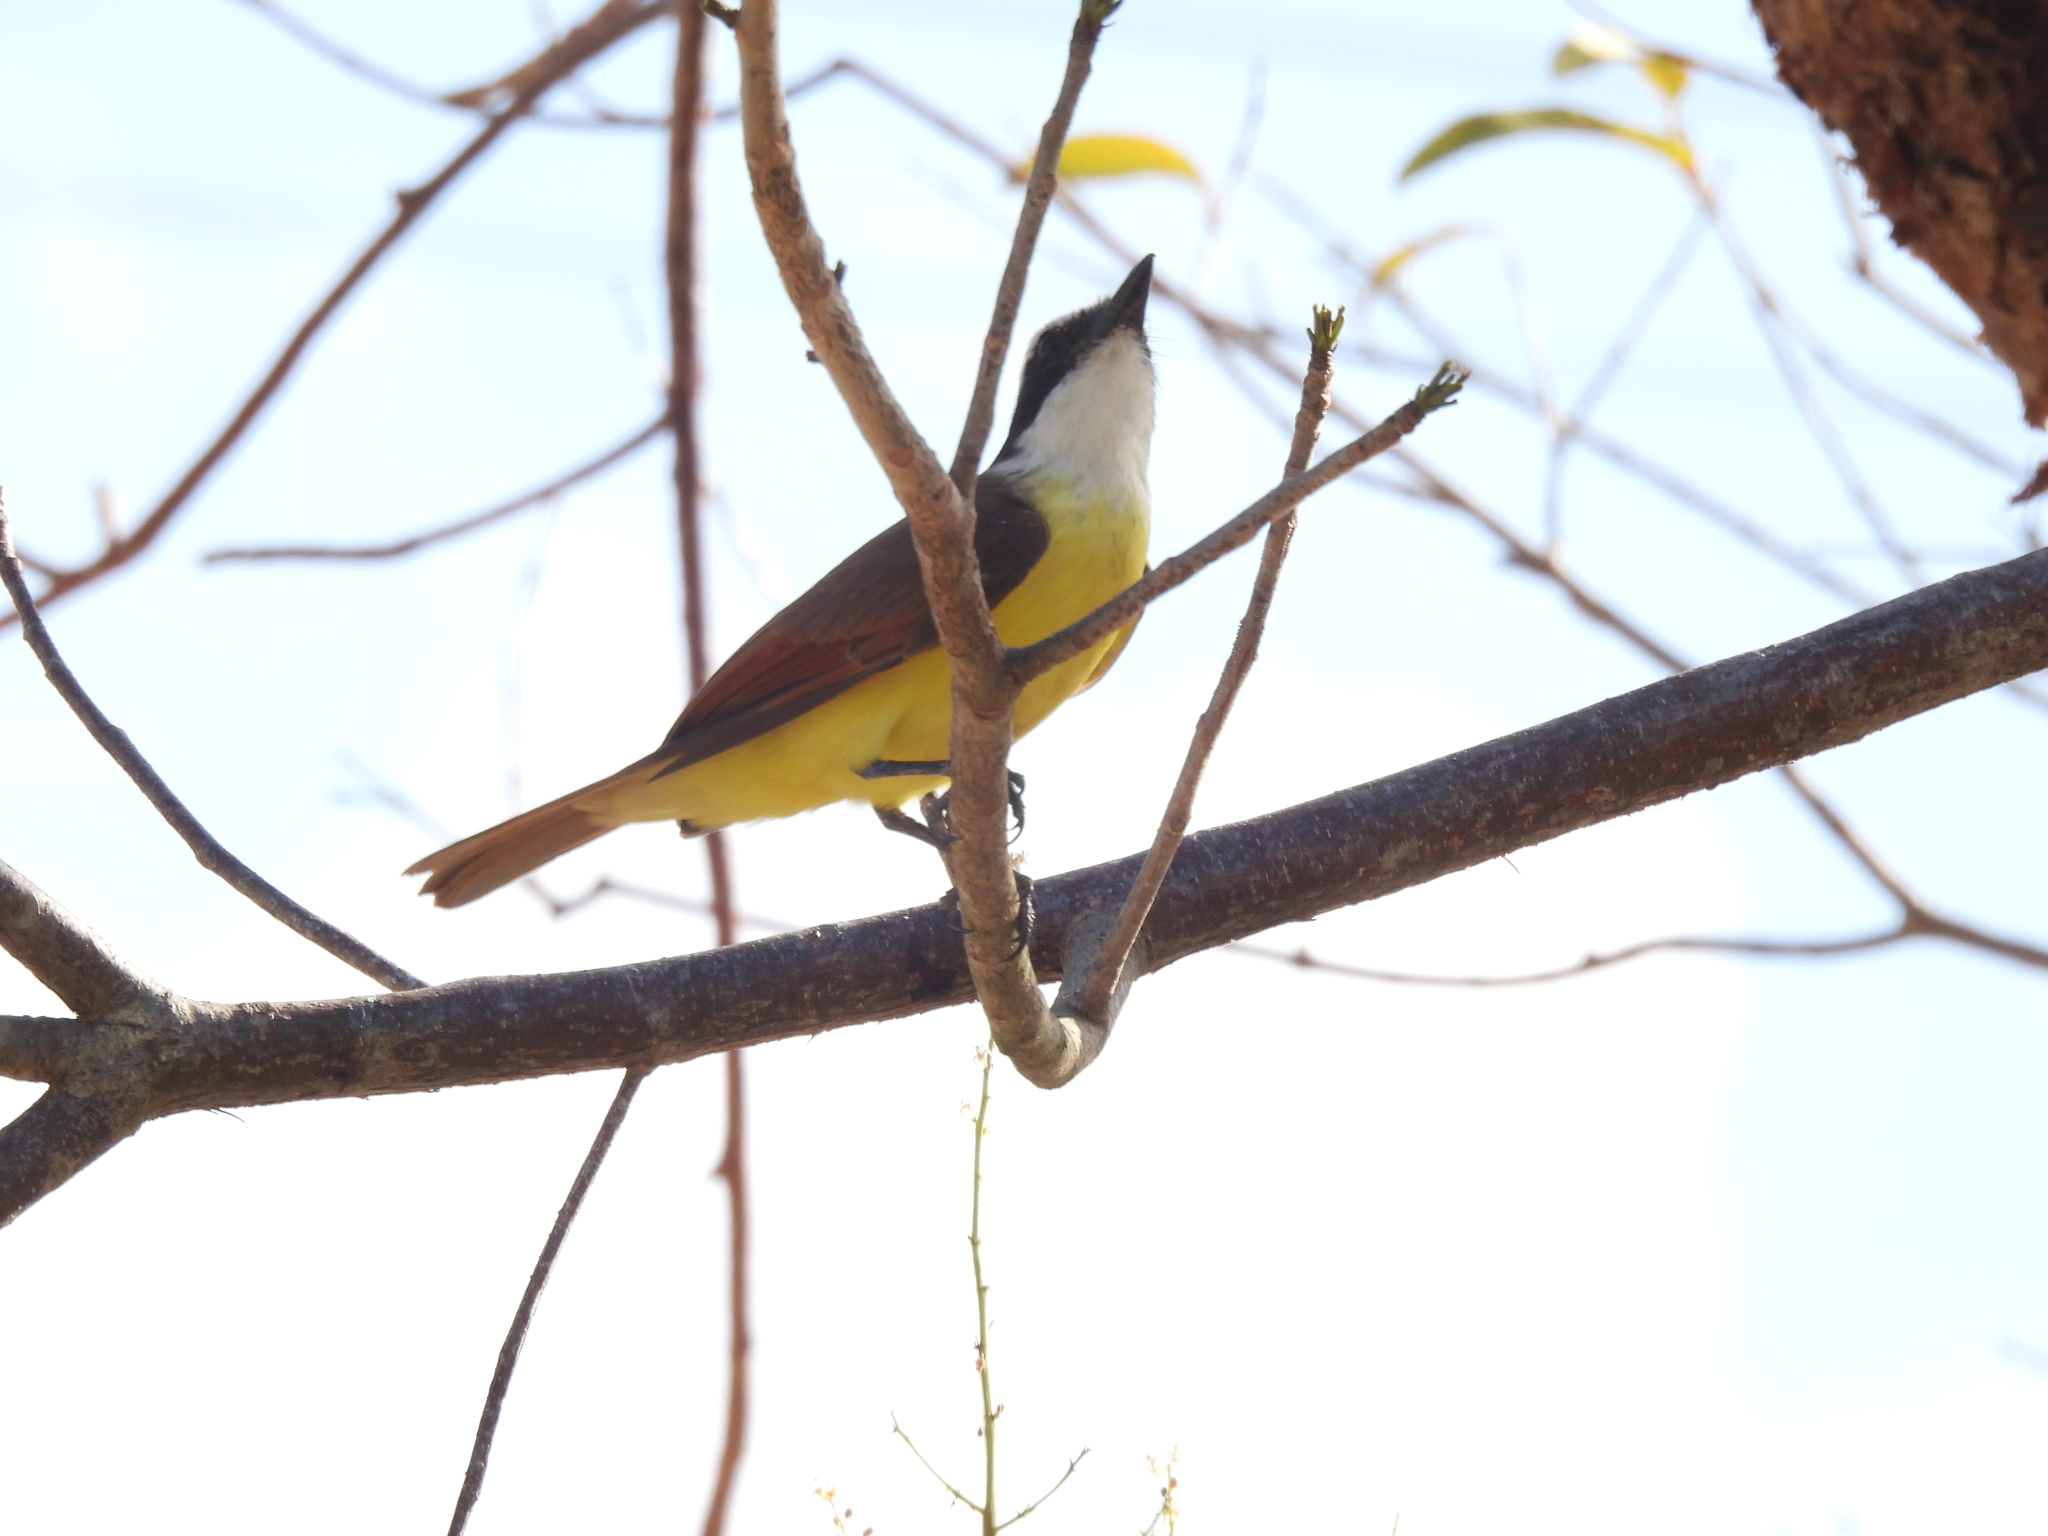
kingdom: Animalia
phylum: Chordata
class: Aves
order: Passeriformes
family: Tyrannidae
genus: Pitangus
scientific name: Pitangus sulphuratus
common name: Great kiskadee
